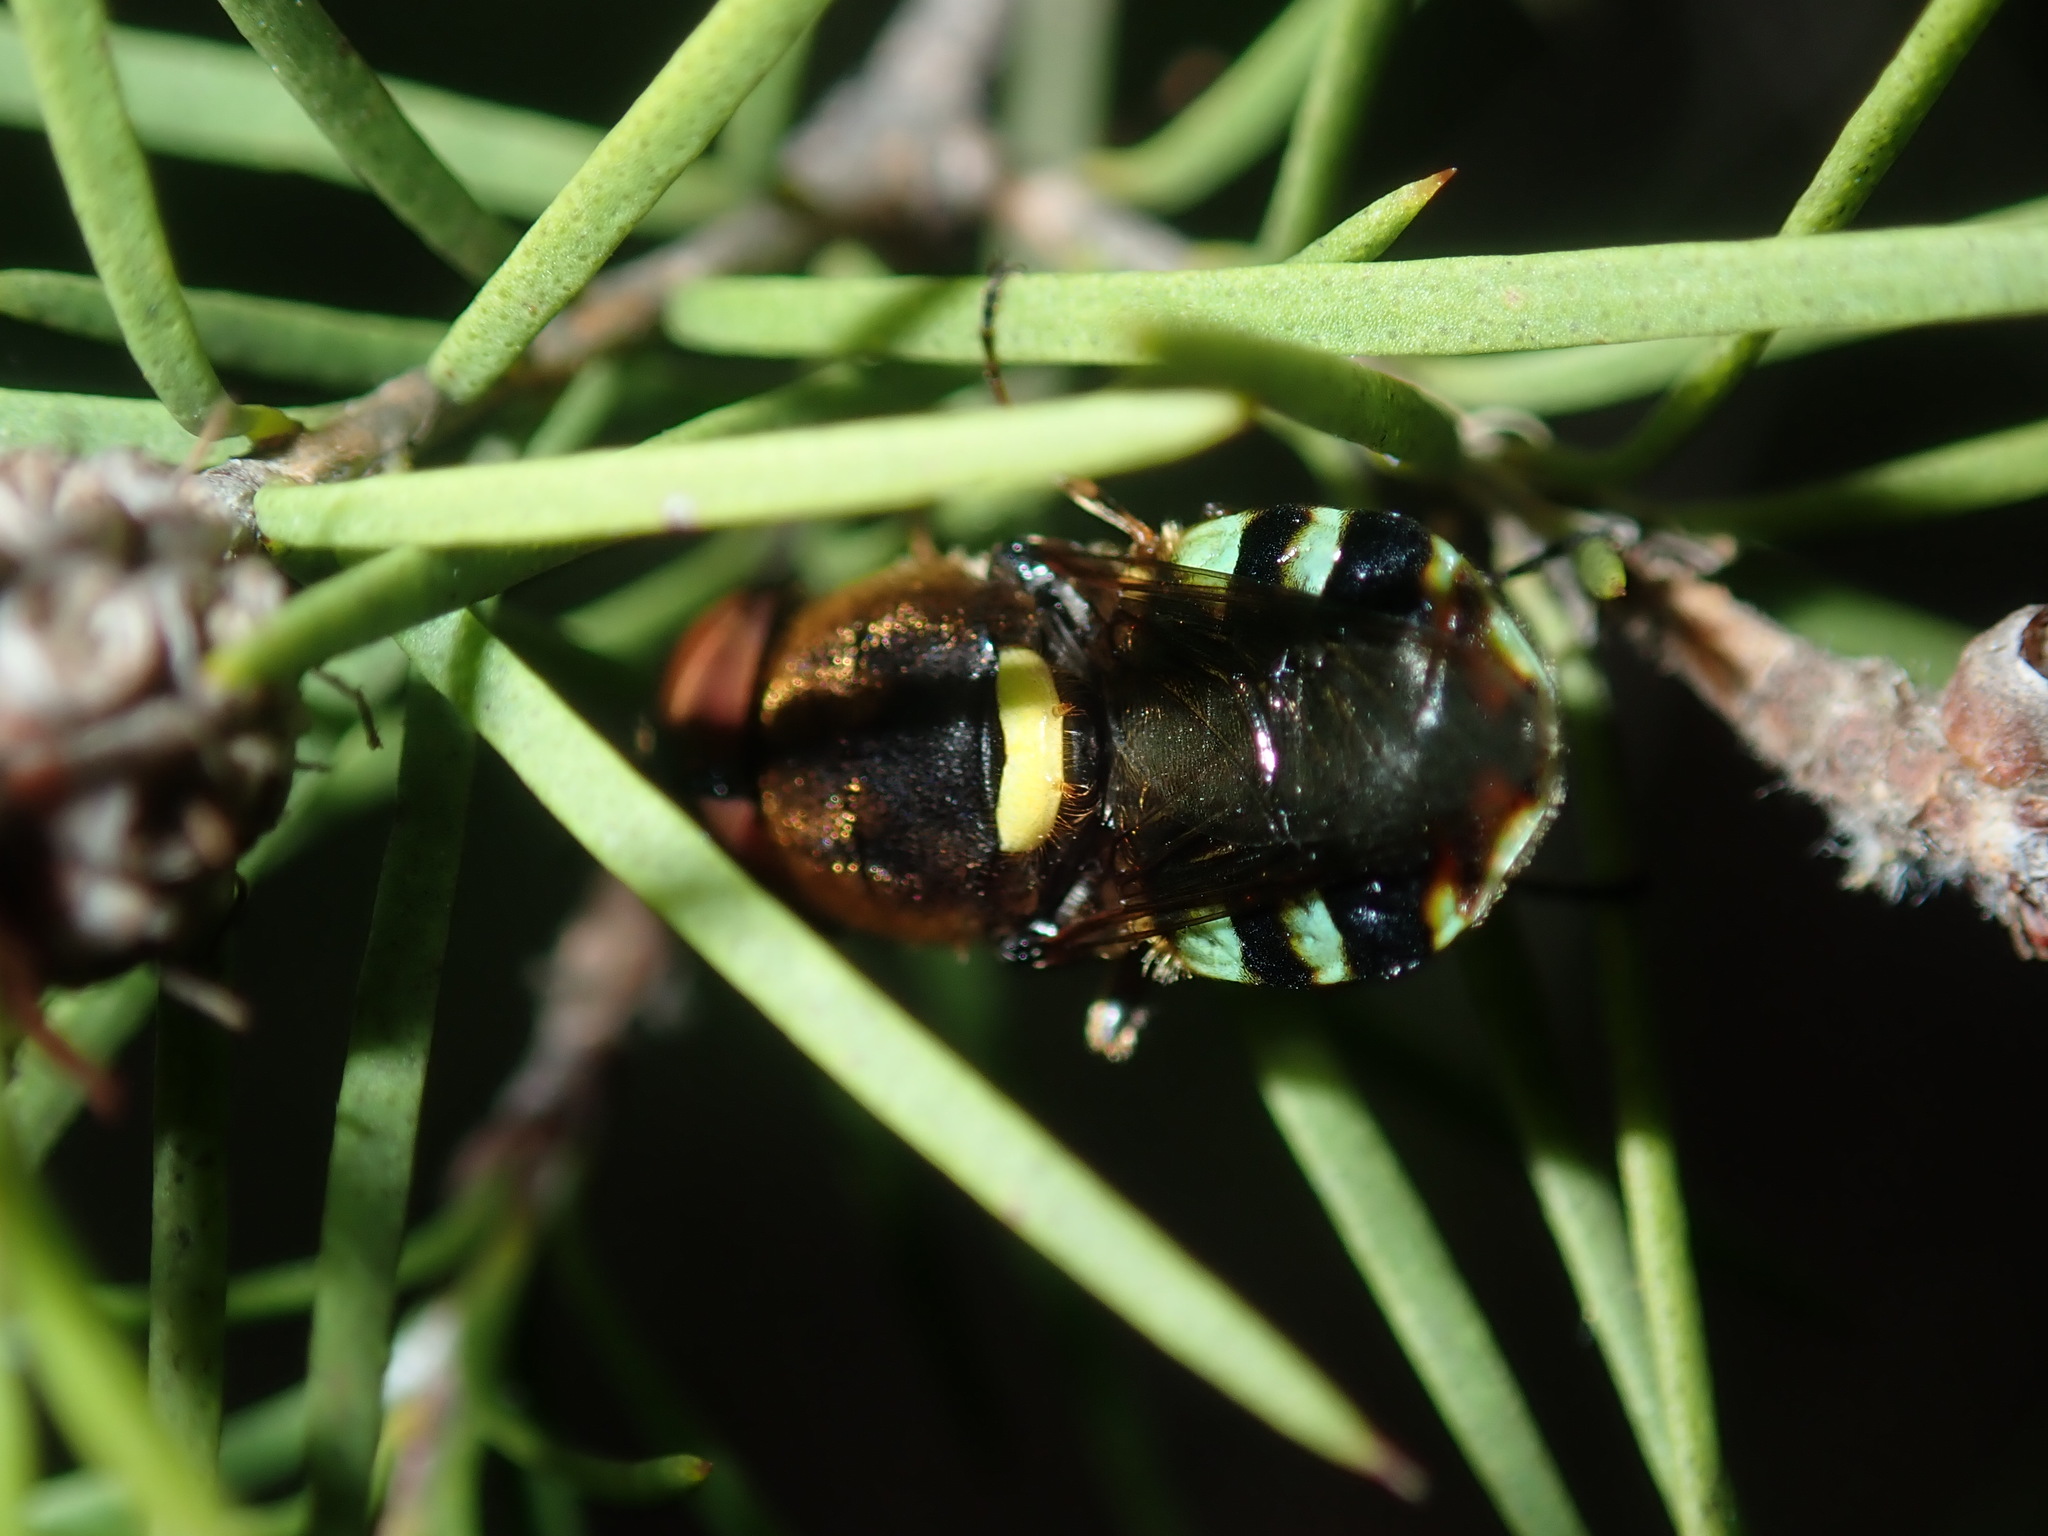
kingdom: Animalia
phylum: Arthropoda
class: Insecta
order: Diptera
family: Stratiomyidae
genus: Odontomyia
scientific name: Odontomyia hunteri
